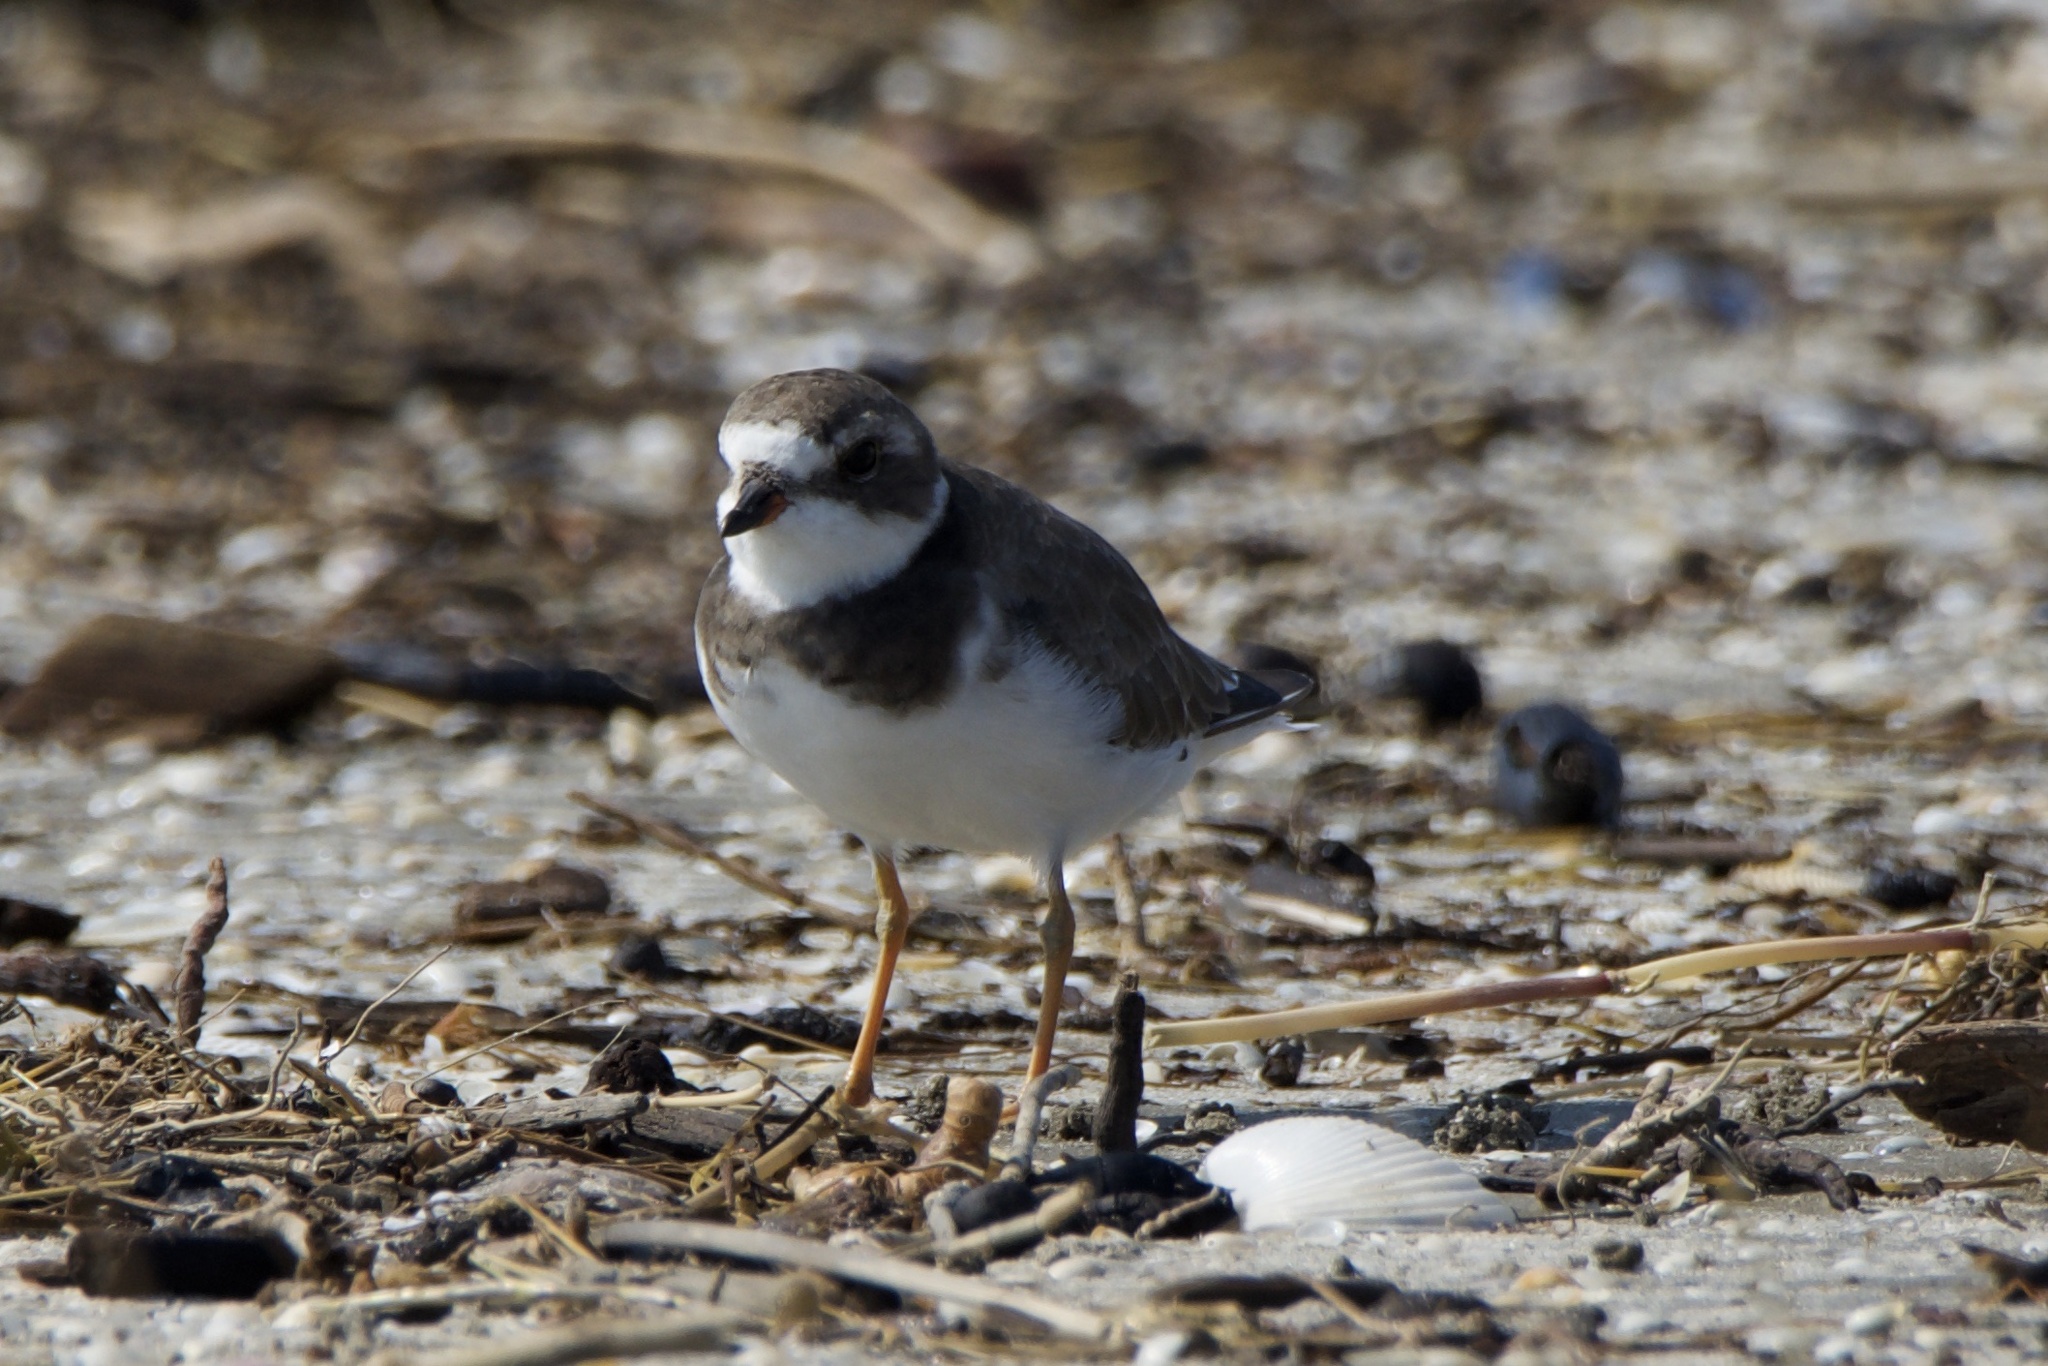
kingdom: Animalia
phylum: Chordata
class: Aves
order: Charadriiformes
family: Charadriidae
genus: Charadrius
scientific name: Charadrius semipalmatus
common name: Semipalmated plover
